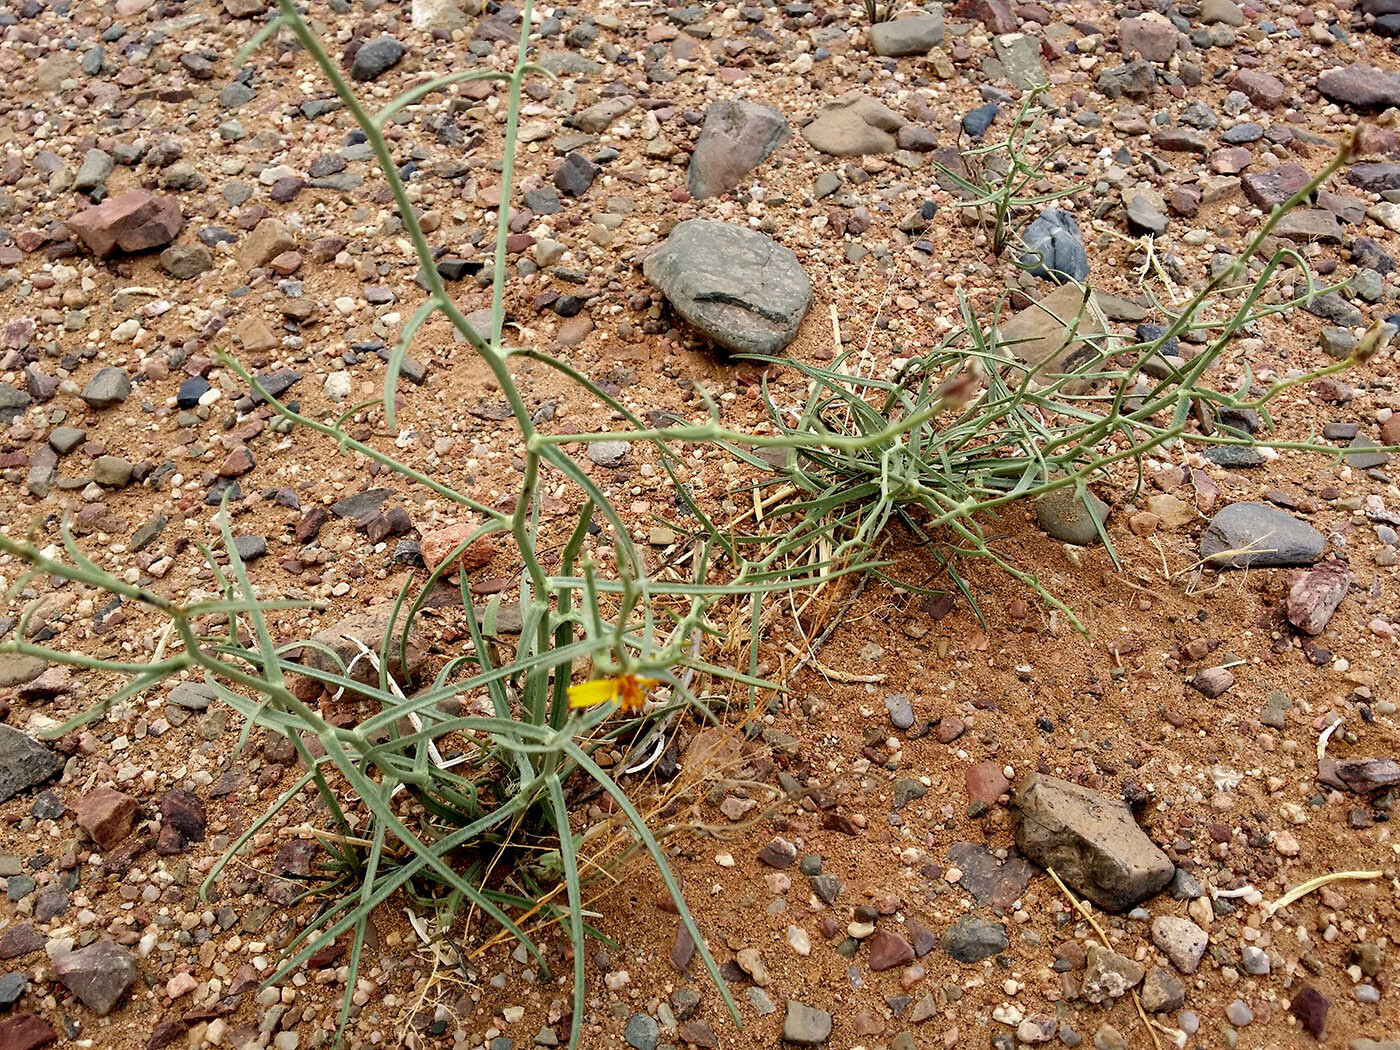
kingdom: Plantae
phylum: Tracheophyta
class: Magnoliopsida
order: Asterales
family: Asteraceae
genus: Lipschitzia
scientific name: Lipschitzia divaricata
